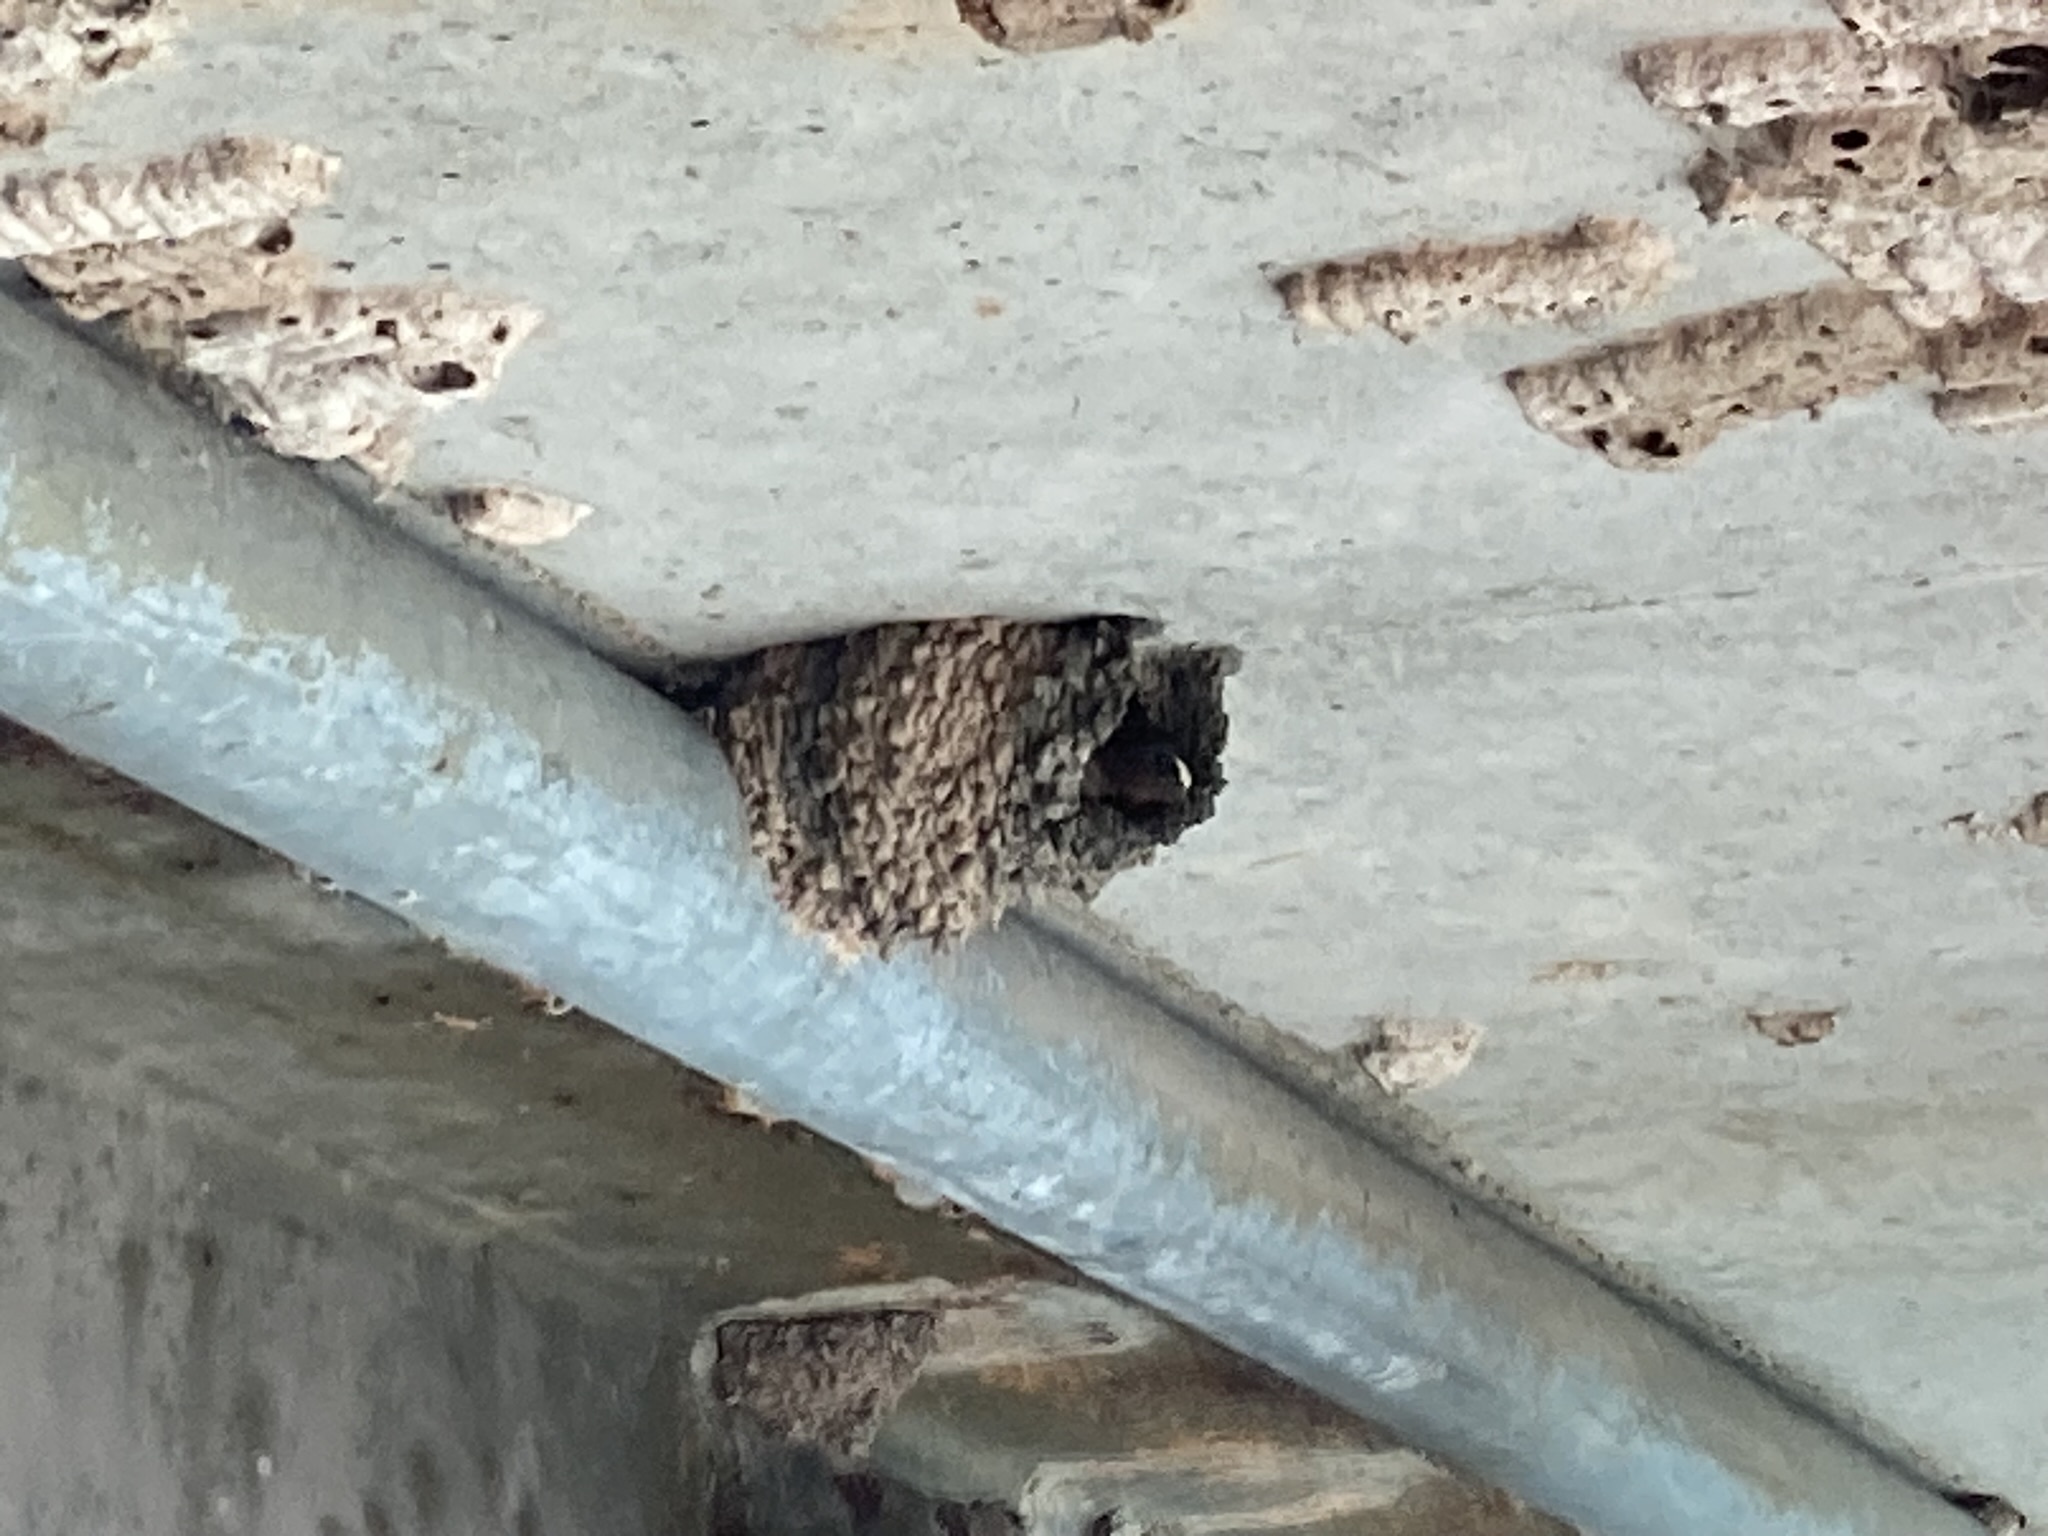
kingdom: Animalia
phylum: Chordata
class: Aves
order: Passeriformes
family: Hirundinidae
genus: Petrochelidon
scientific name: Petrochelidon pyrrhonota
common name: American cliff swallow
